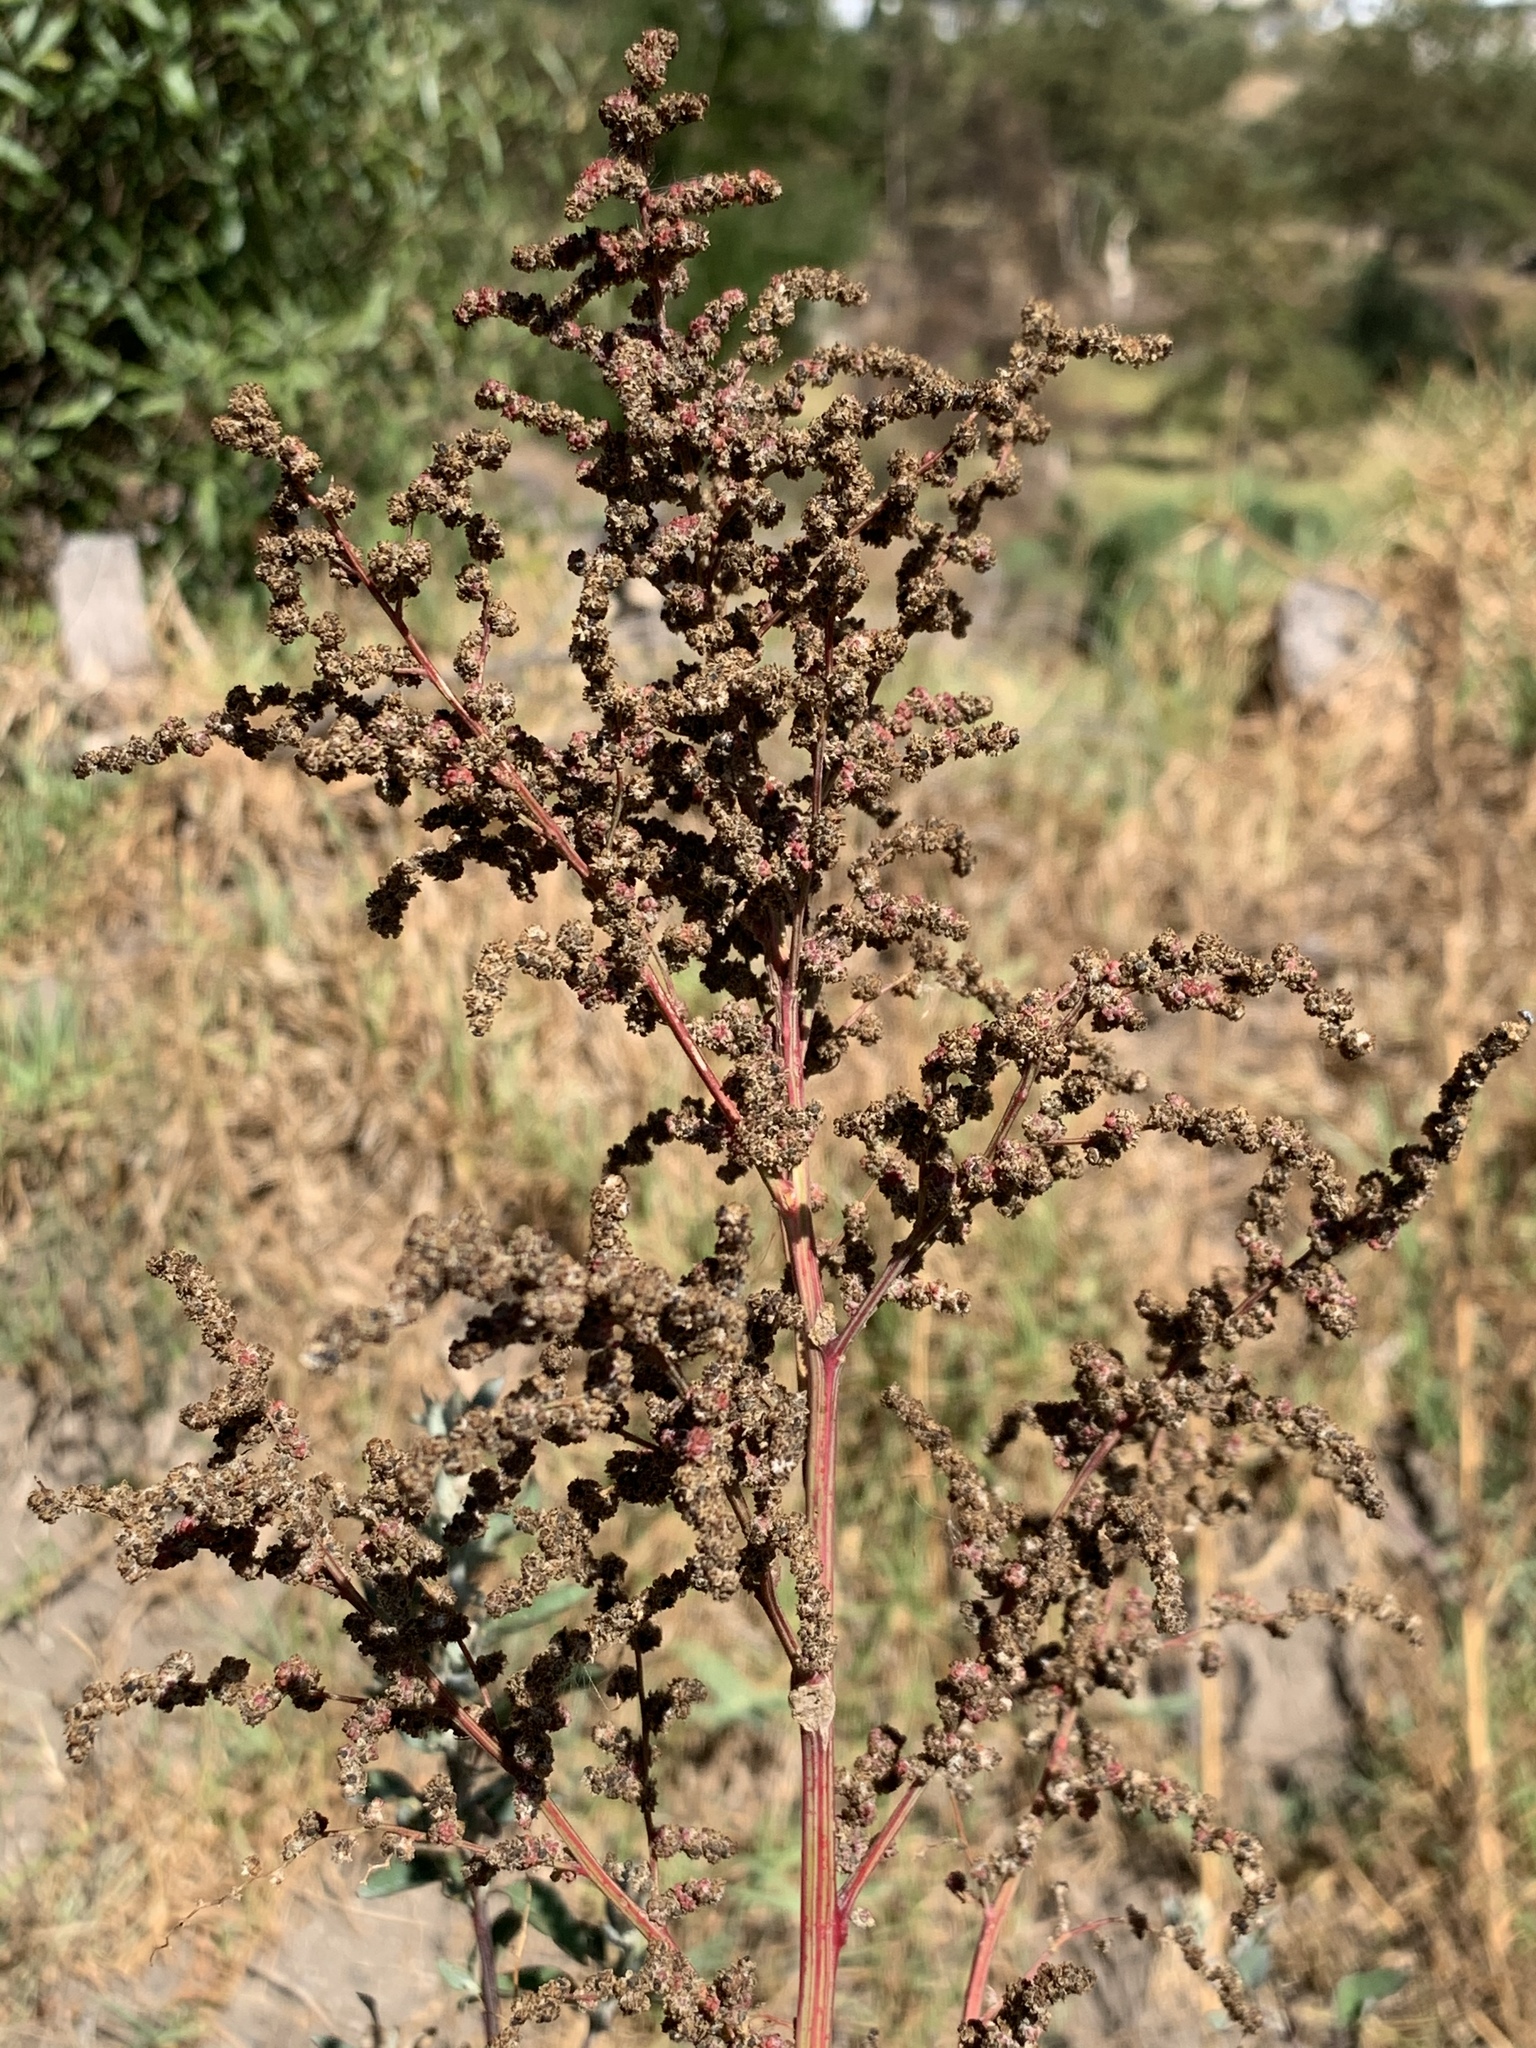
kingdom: Plantae
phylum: Tracheophyta
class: Magnoliopsida
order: Caryophyllales
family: Amaranthaceae
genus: Chenopodium
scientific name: Chenopodium album
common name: Fat-hen
